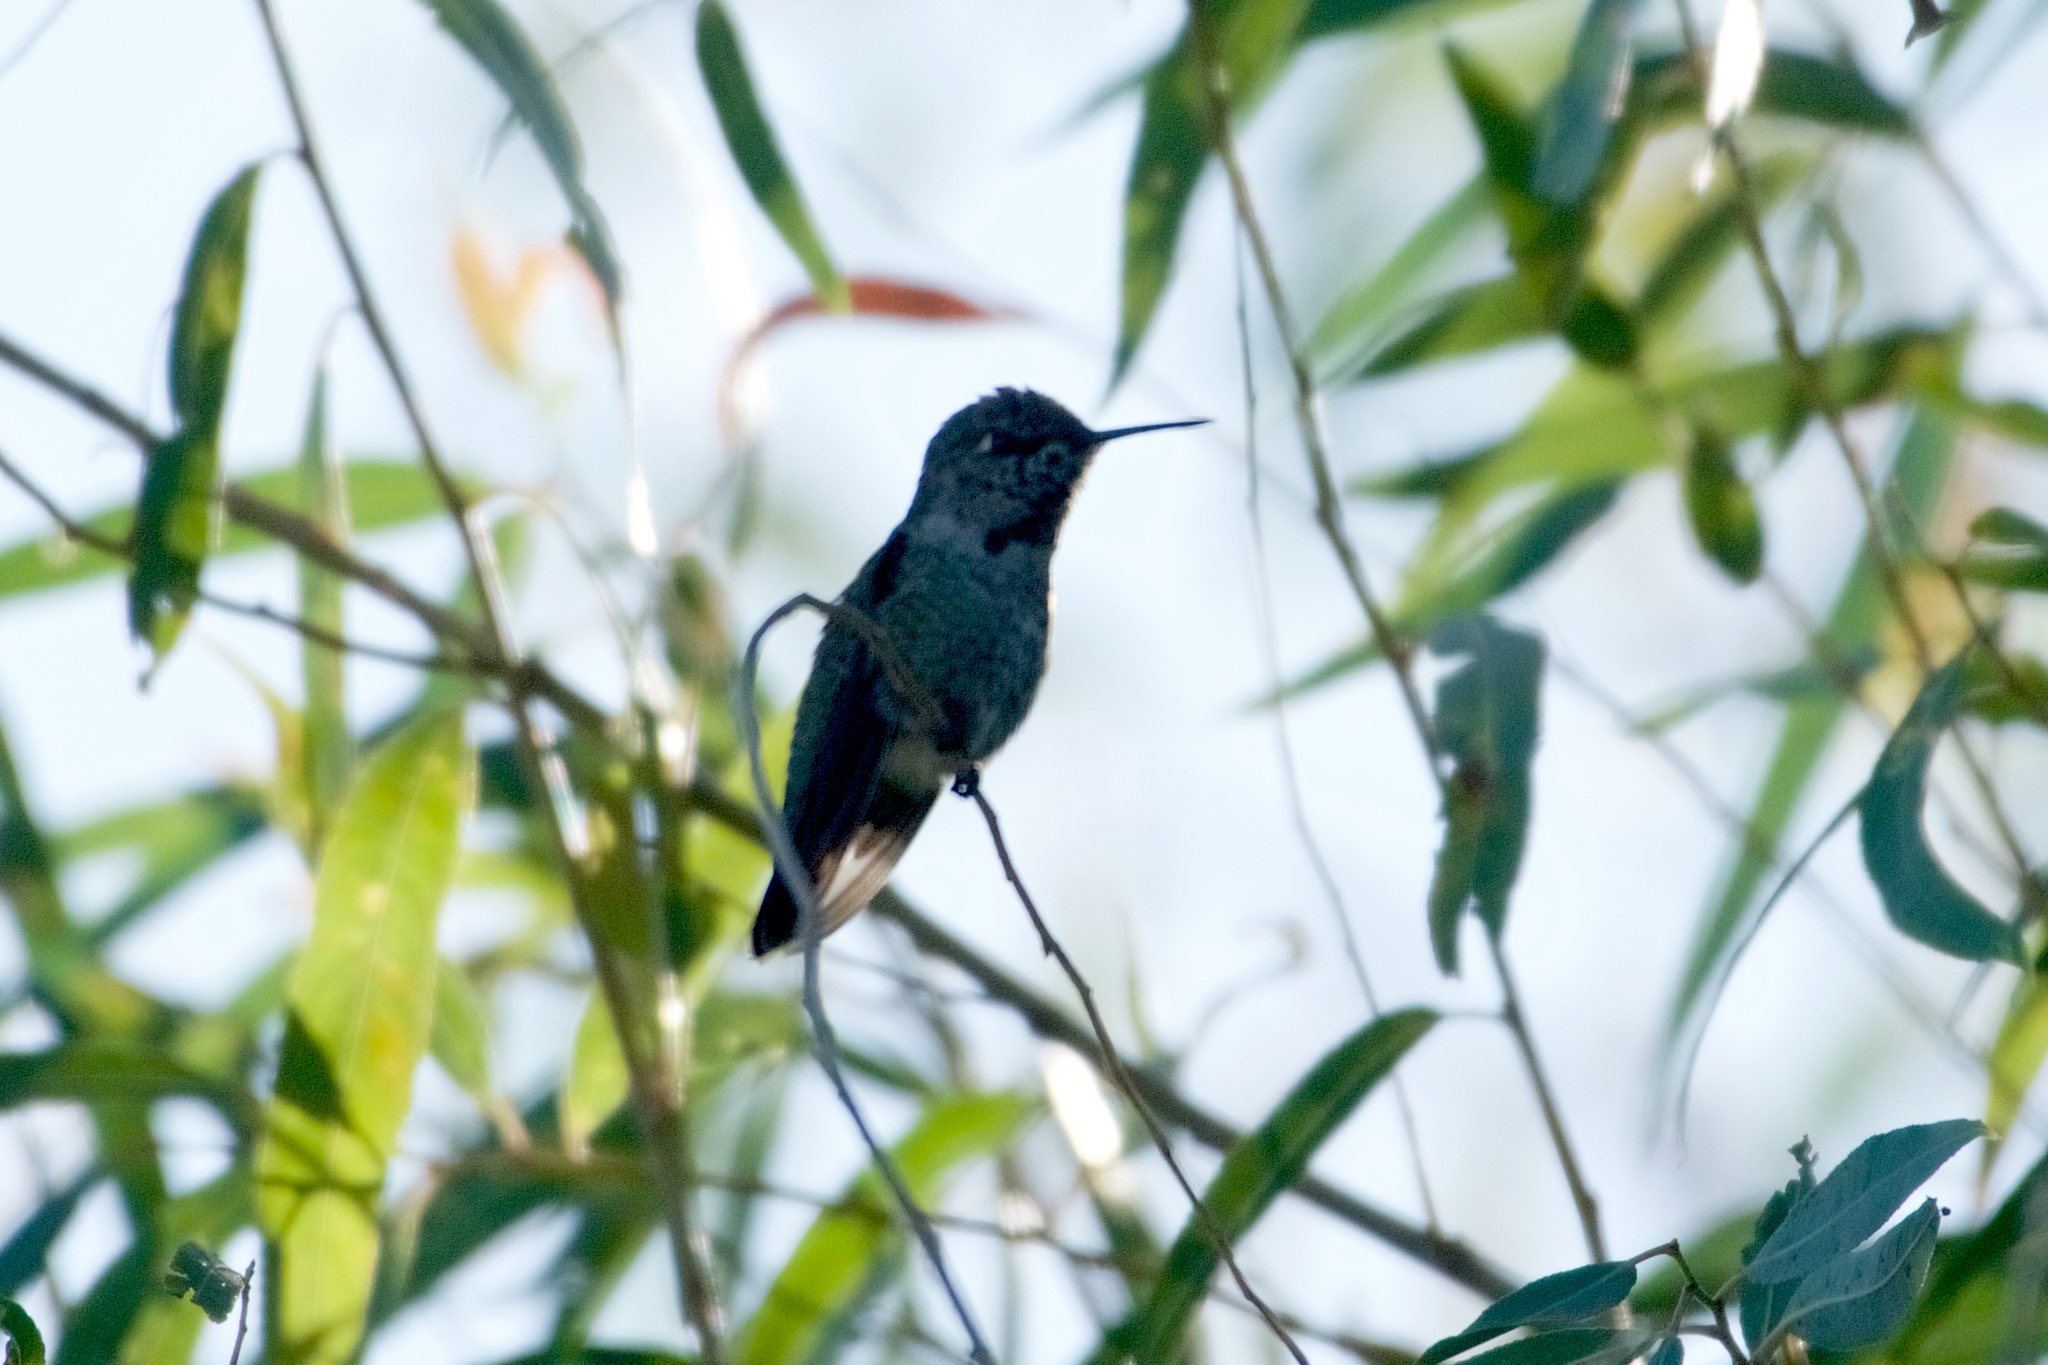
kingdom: Animalia
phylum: Chordata
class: Aves
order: Apodiformes
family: Trochilidae
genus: Calypte
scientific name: Calypte anna
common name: Anna's hummingbird
